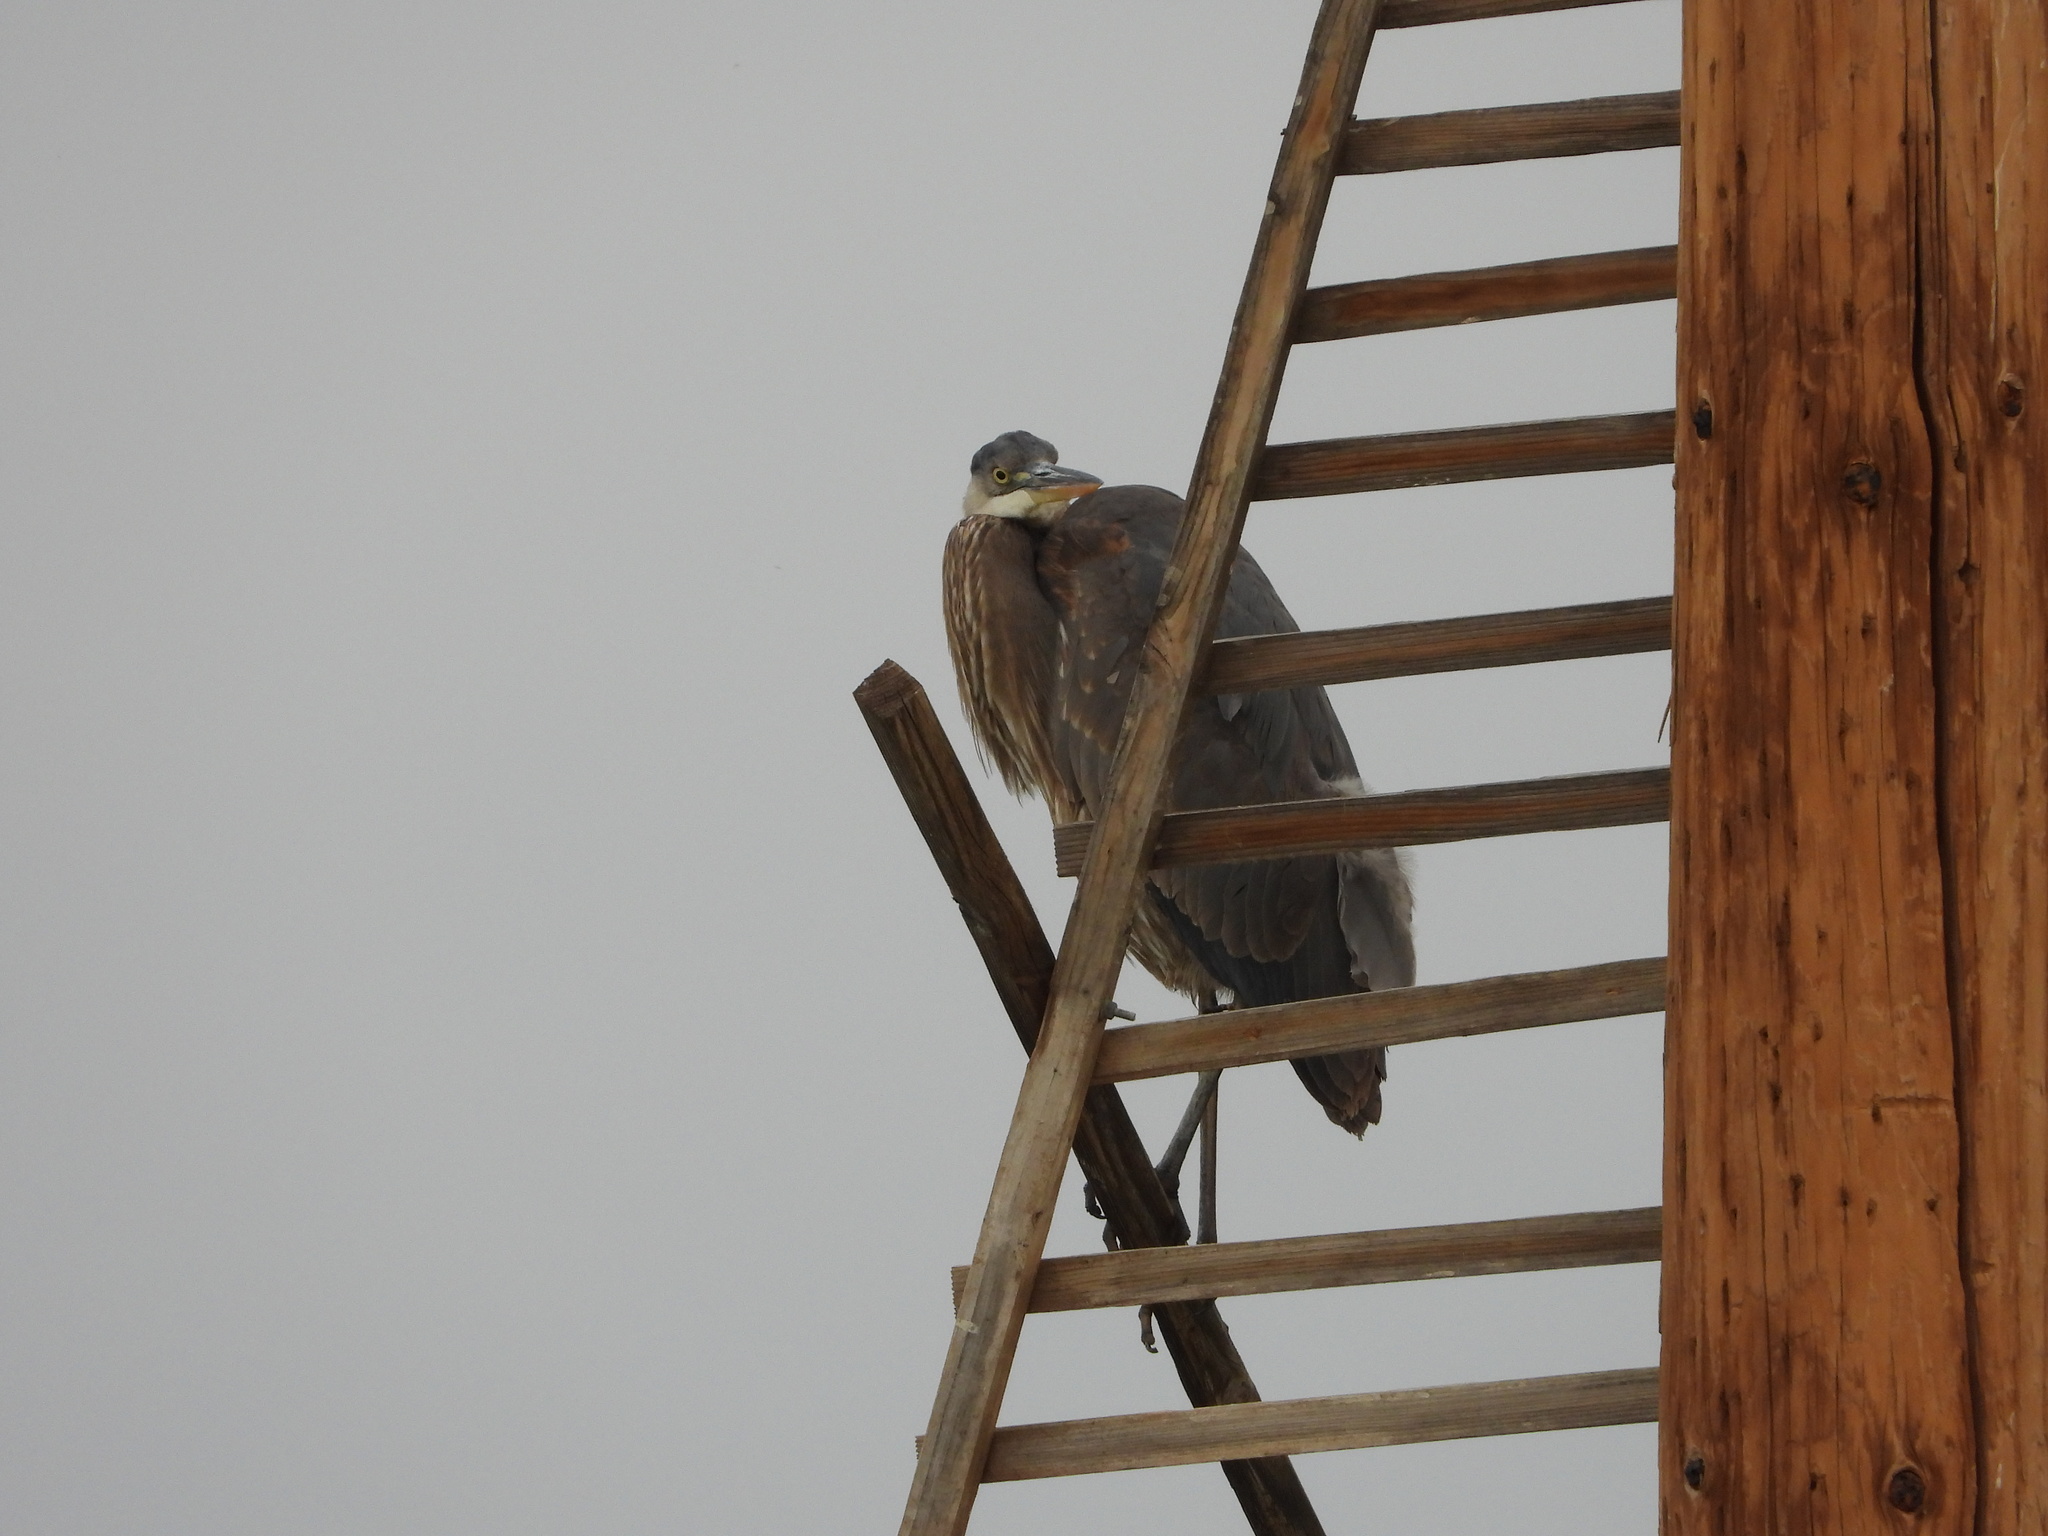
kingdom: Animalia
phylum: Chordata
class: Aves
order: Pelecaniformes
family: Ardeidae
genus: Ardea
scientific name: Ardea herodias
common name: Great blue heron
